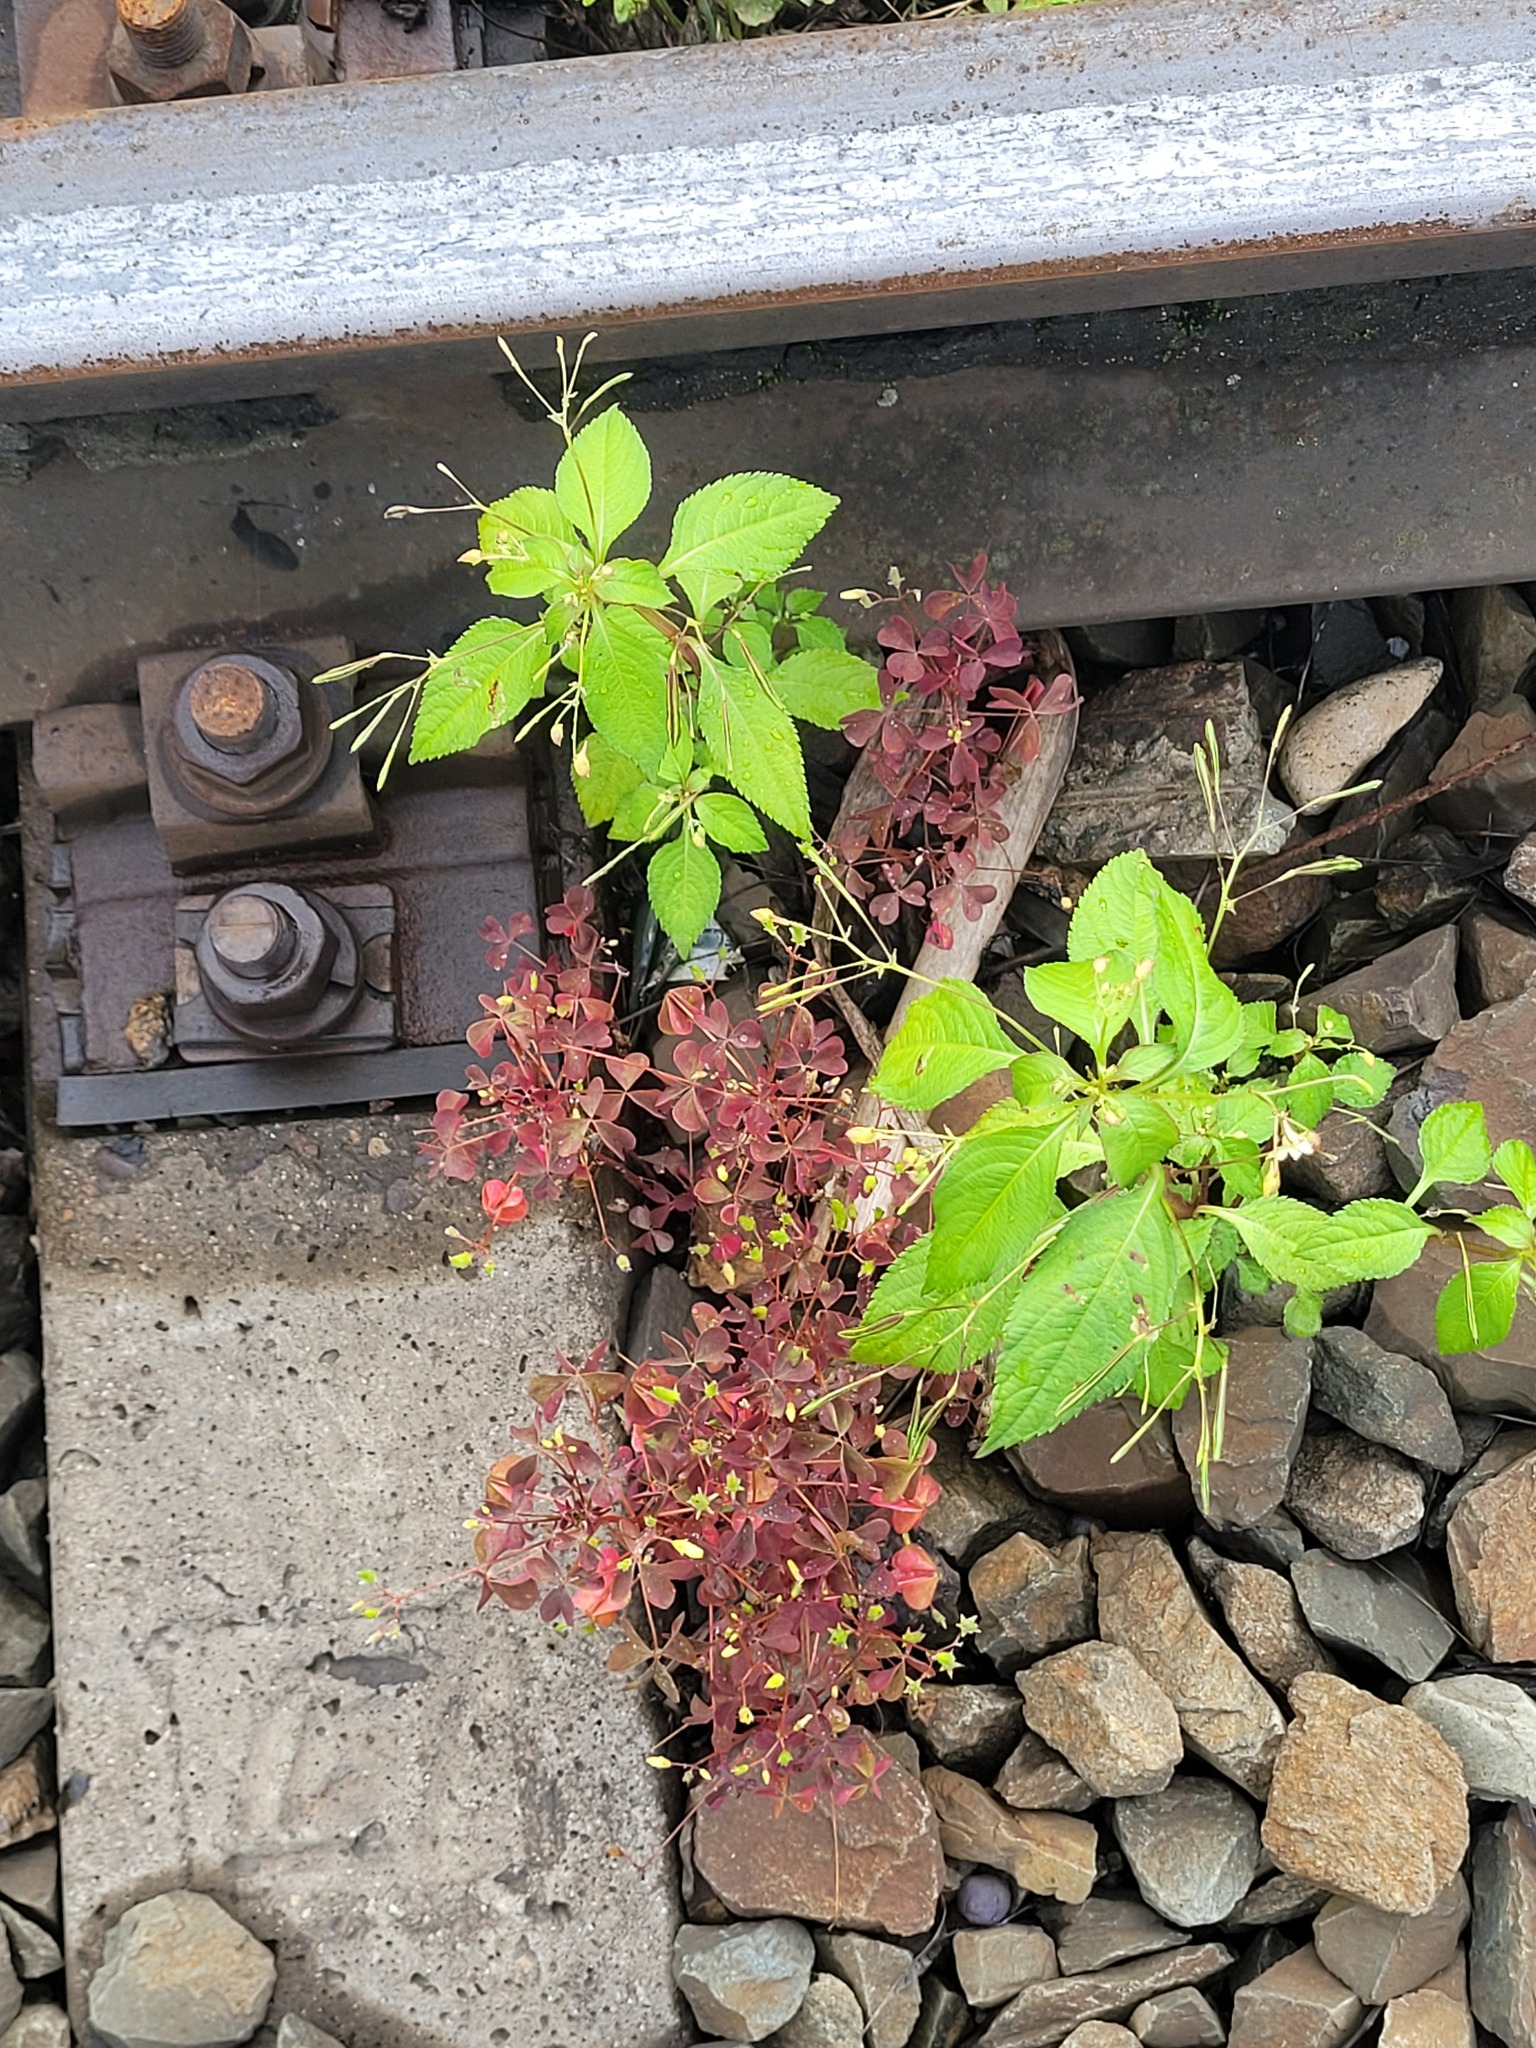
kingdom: Plantae
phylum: Tracheophyta
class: Magnoliopsida
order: Oxalidales
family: Oxalidaceae
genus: Oxalis
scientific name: Oxalis stricta
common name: Upright yellow-sorrel
